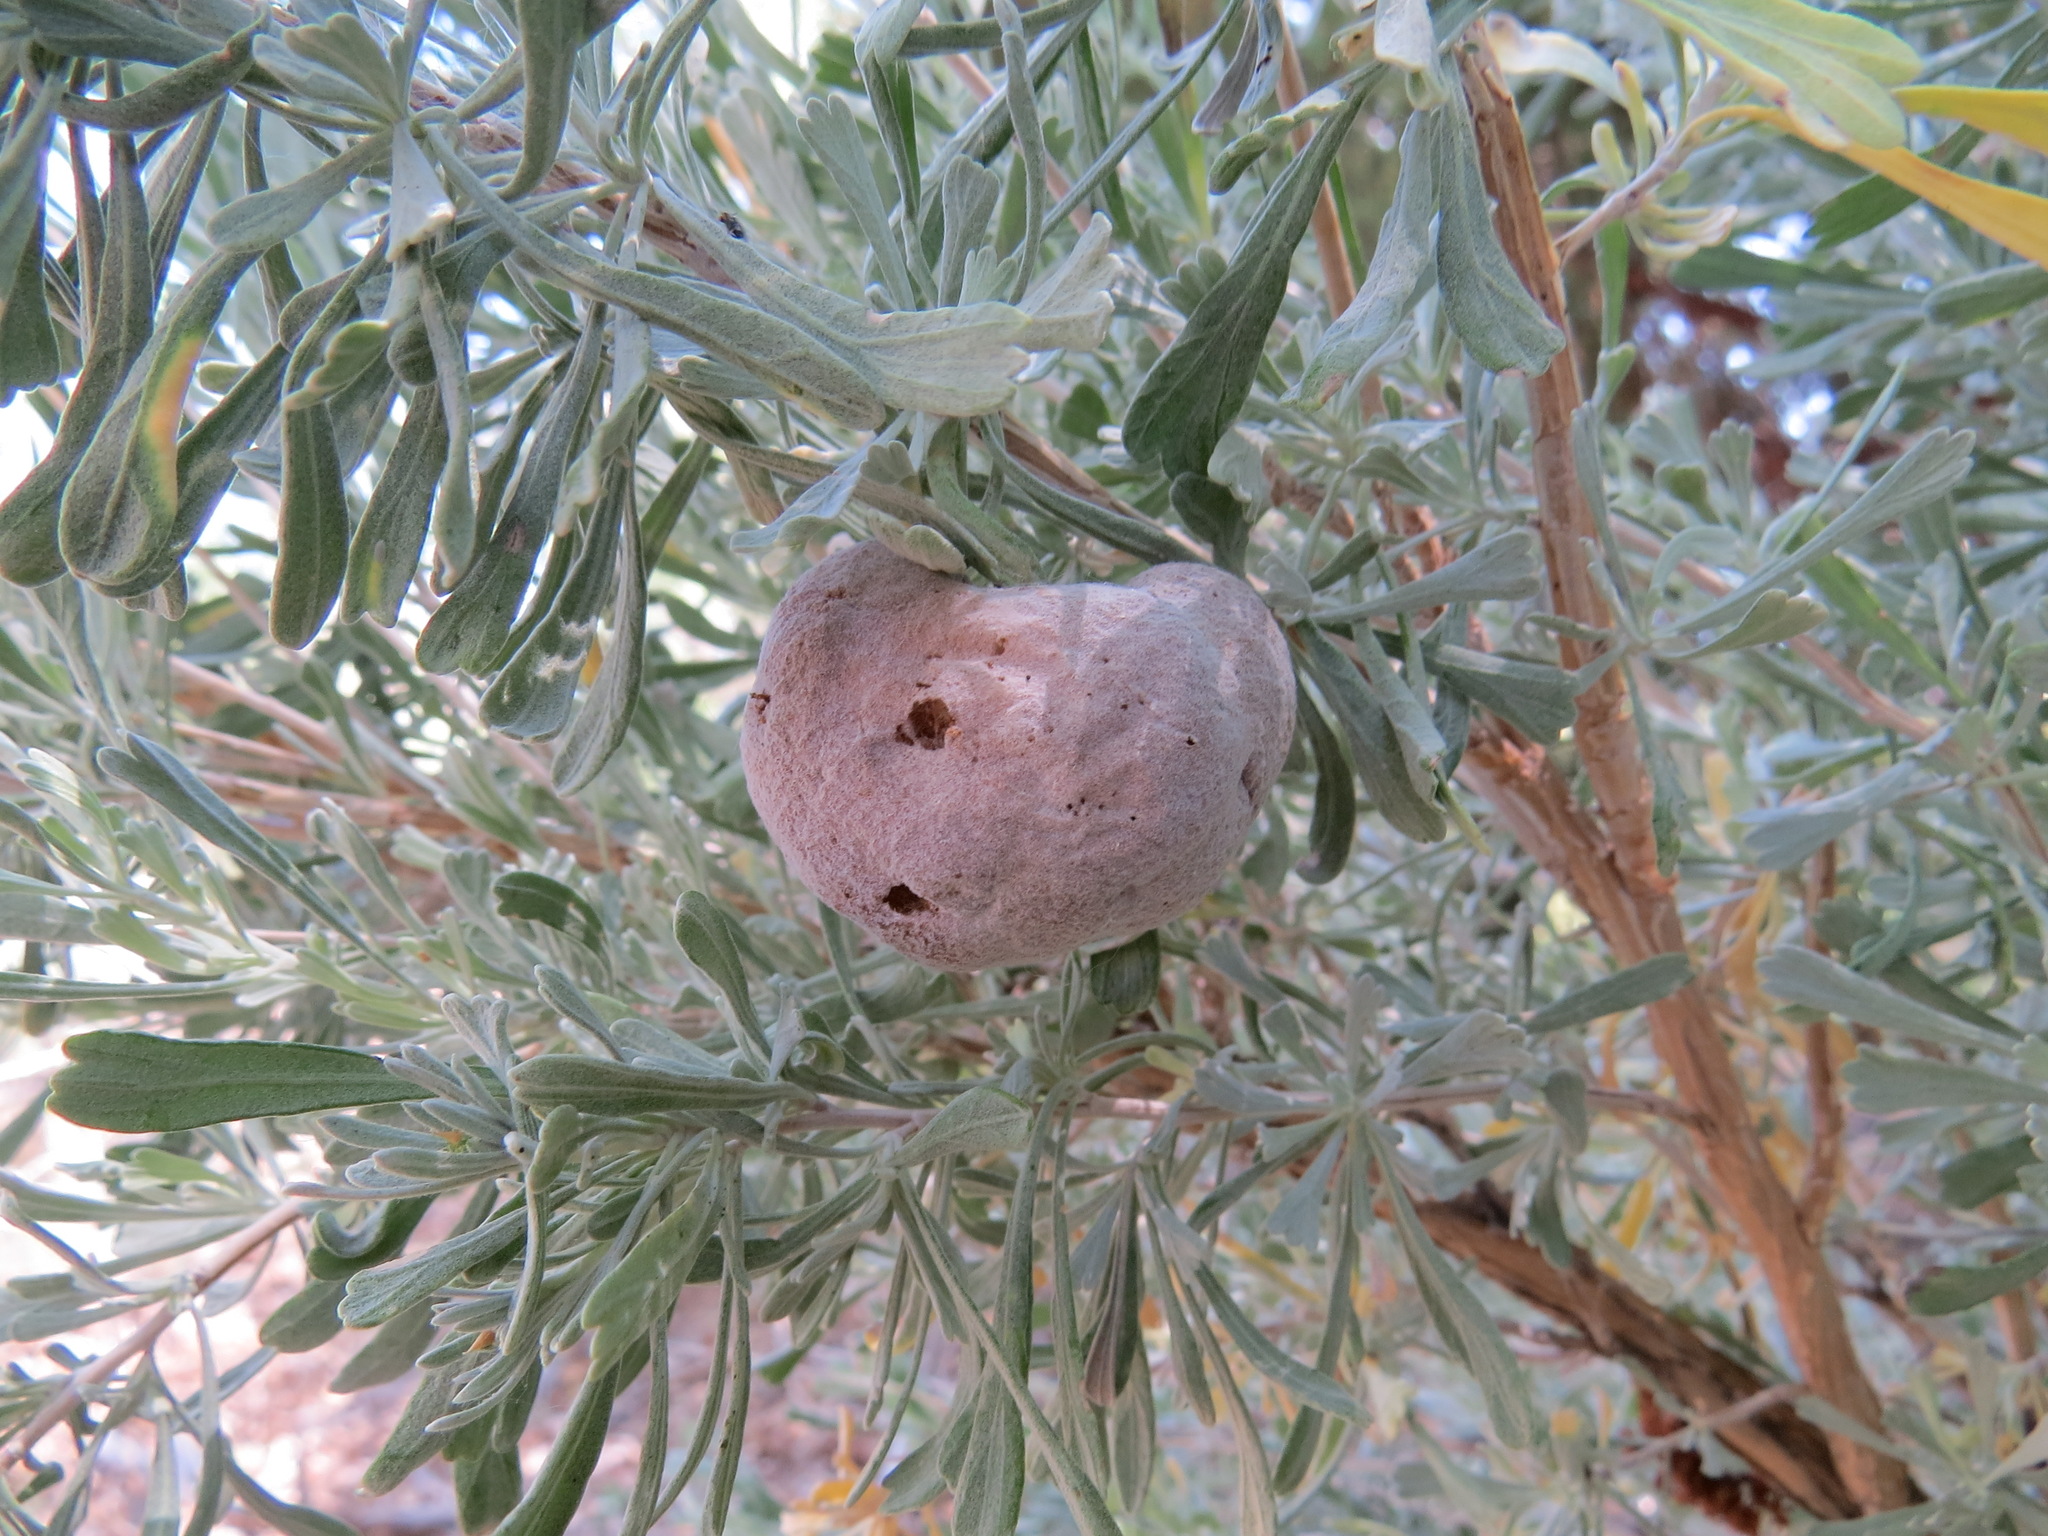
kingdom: Animalia
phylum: Arthropoda
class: Insecta
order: Diptera
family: Cecidomyiidae
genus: Rhopalomyia
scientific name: Rhopalomyia pomum
